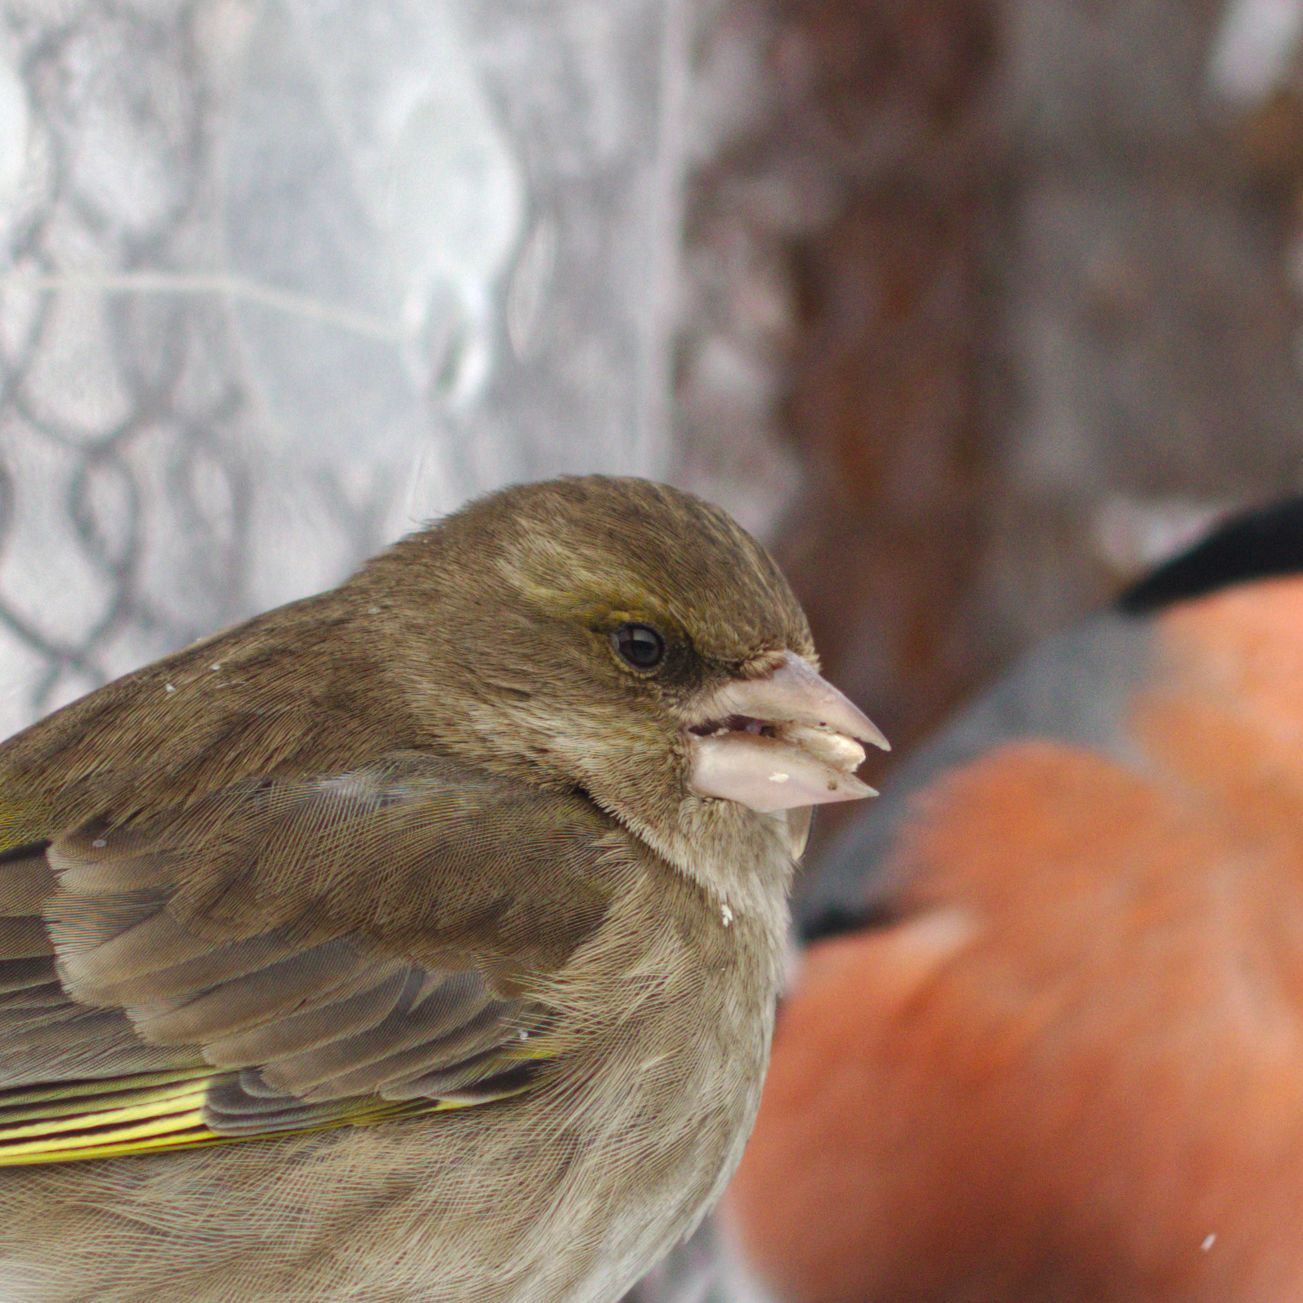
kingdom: Plantae
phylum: Tracheophyta
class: Liliopsida
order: Poales
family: Poaceae
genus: Chloris
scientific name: Chloris chloris
